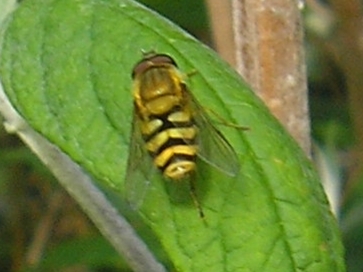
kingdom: Animalia
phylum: Arthropoda
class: Insecta
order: Diptera
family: Syrphidae
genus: Syrphus
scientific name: Syrphus
